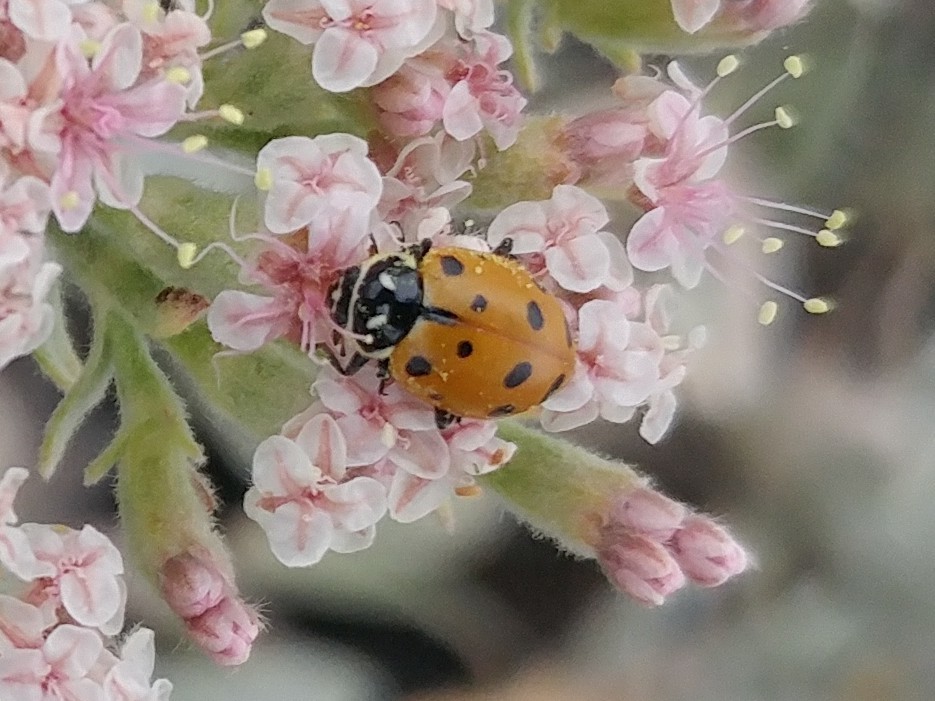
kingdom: Animalia
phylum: Arthropoda
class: Insecta
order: Coleoptera
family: Coccinellidae
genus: Hippodamia
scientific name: Hippodamia convergens
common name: Convergent lady beetle
